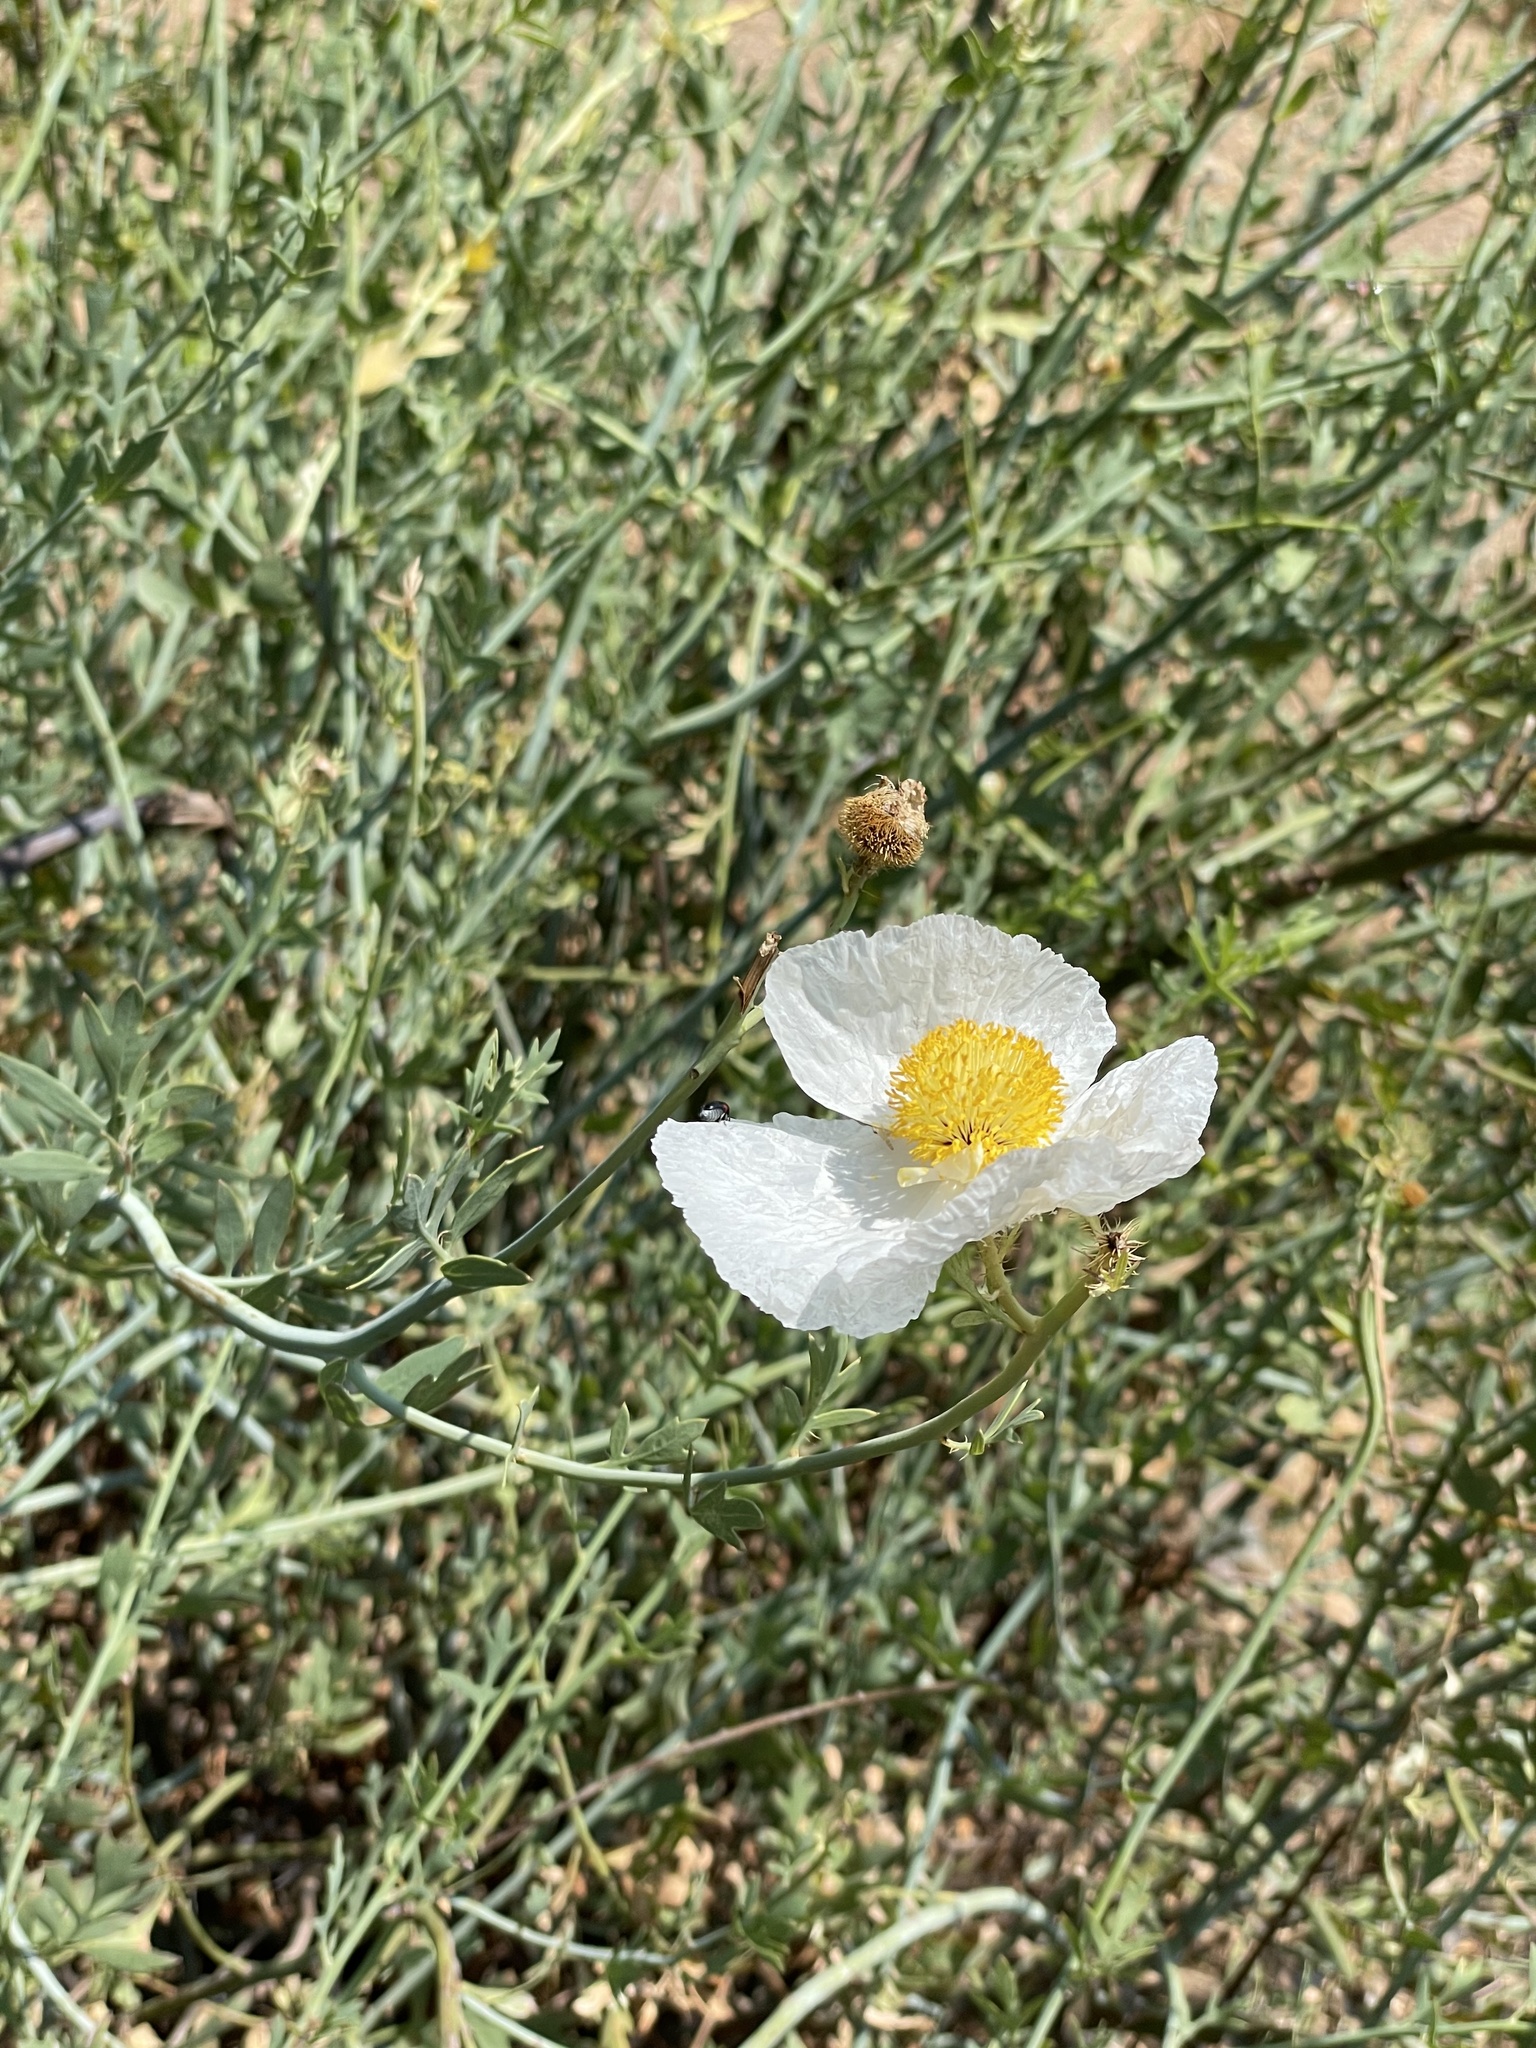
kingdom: Plantae
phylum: Tracheophyta
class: Magnoliopsida
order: Ranunculales
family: Papaveraceae
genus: Romneya
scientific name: Romneya trichocalyx
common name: Hairy matilija-poppy
